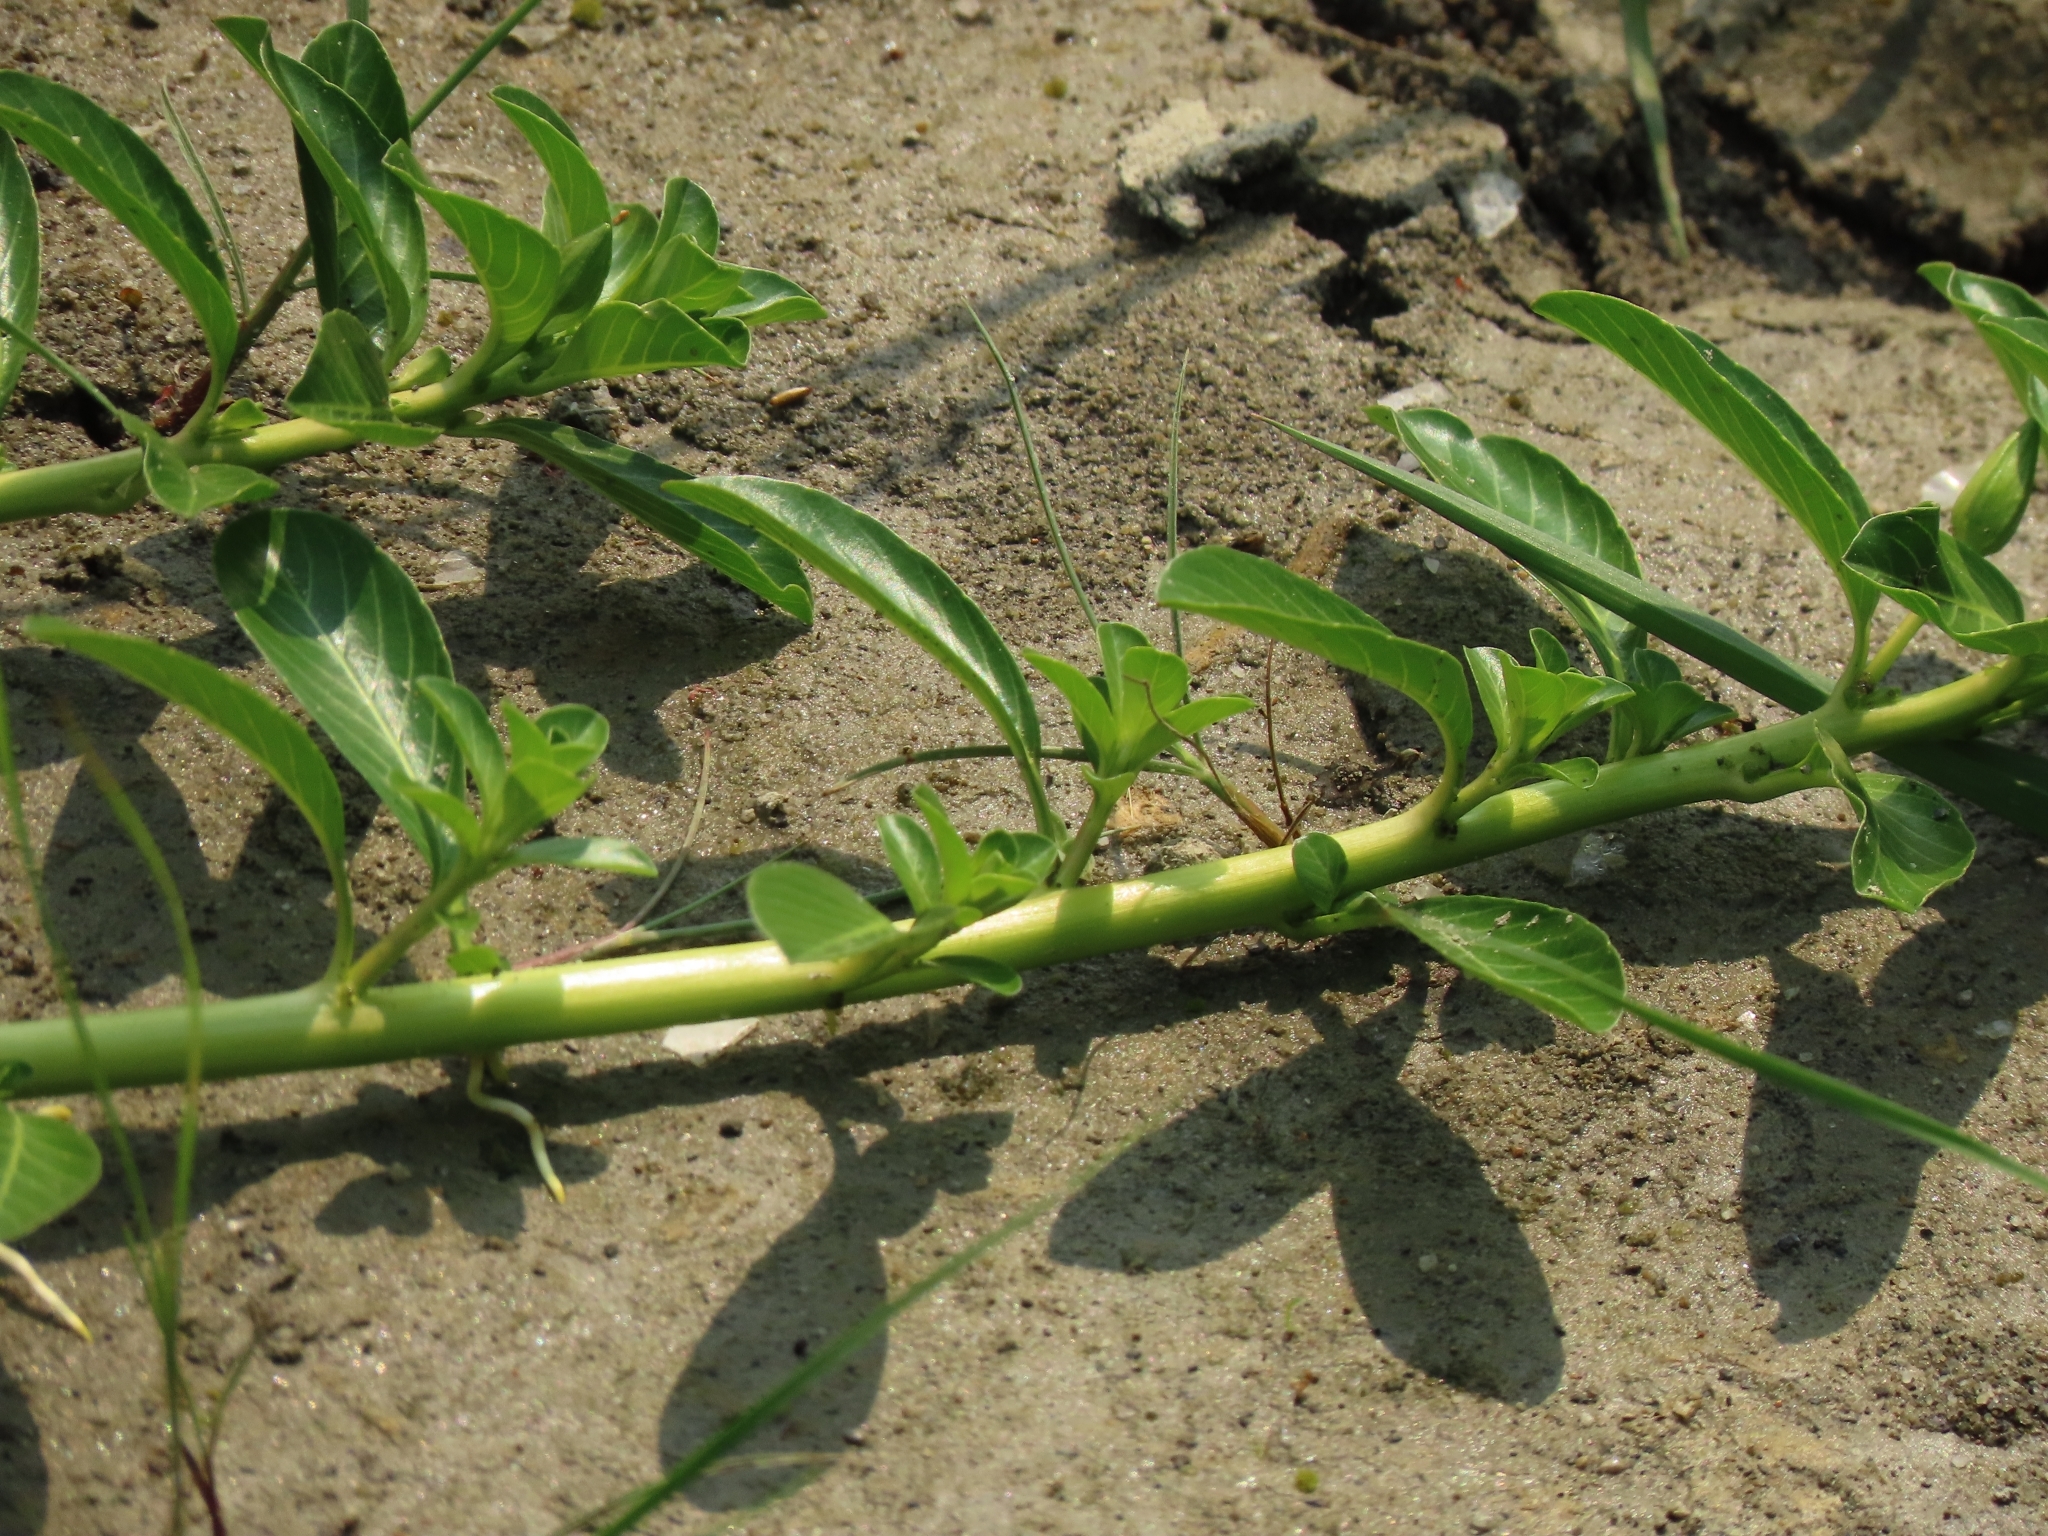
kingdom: Plantae
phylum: Tracheophyta
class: Magnoliopsida
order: Myrtales
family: Onagraceae
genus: Ludwigia
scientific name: Ludwigia taiwanensis
